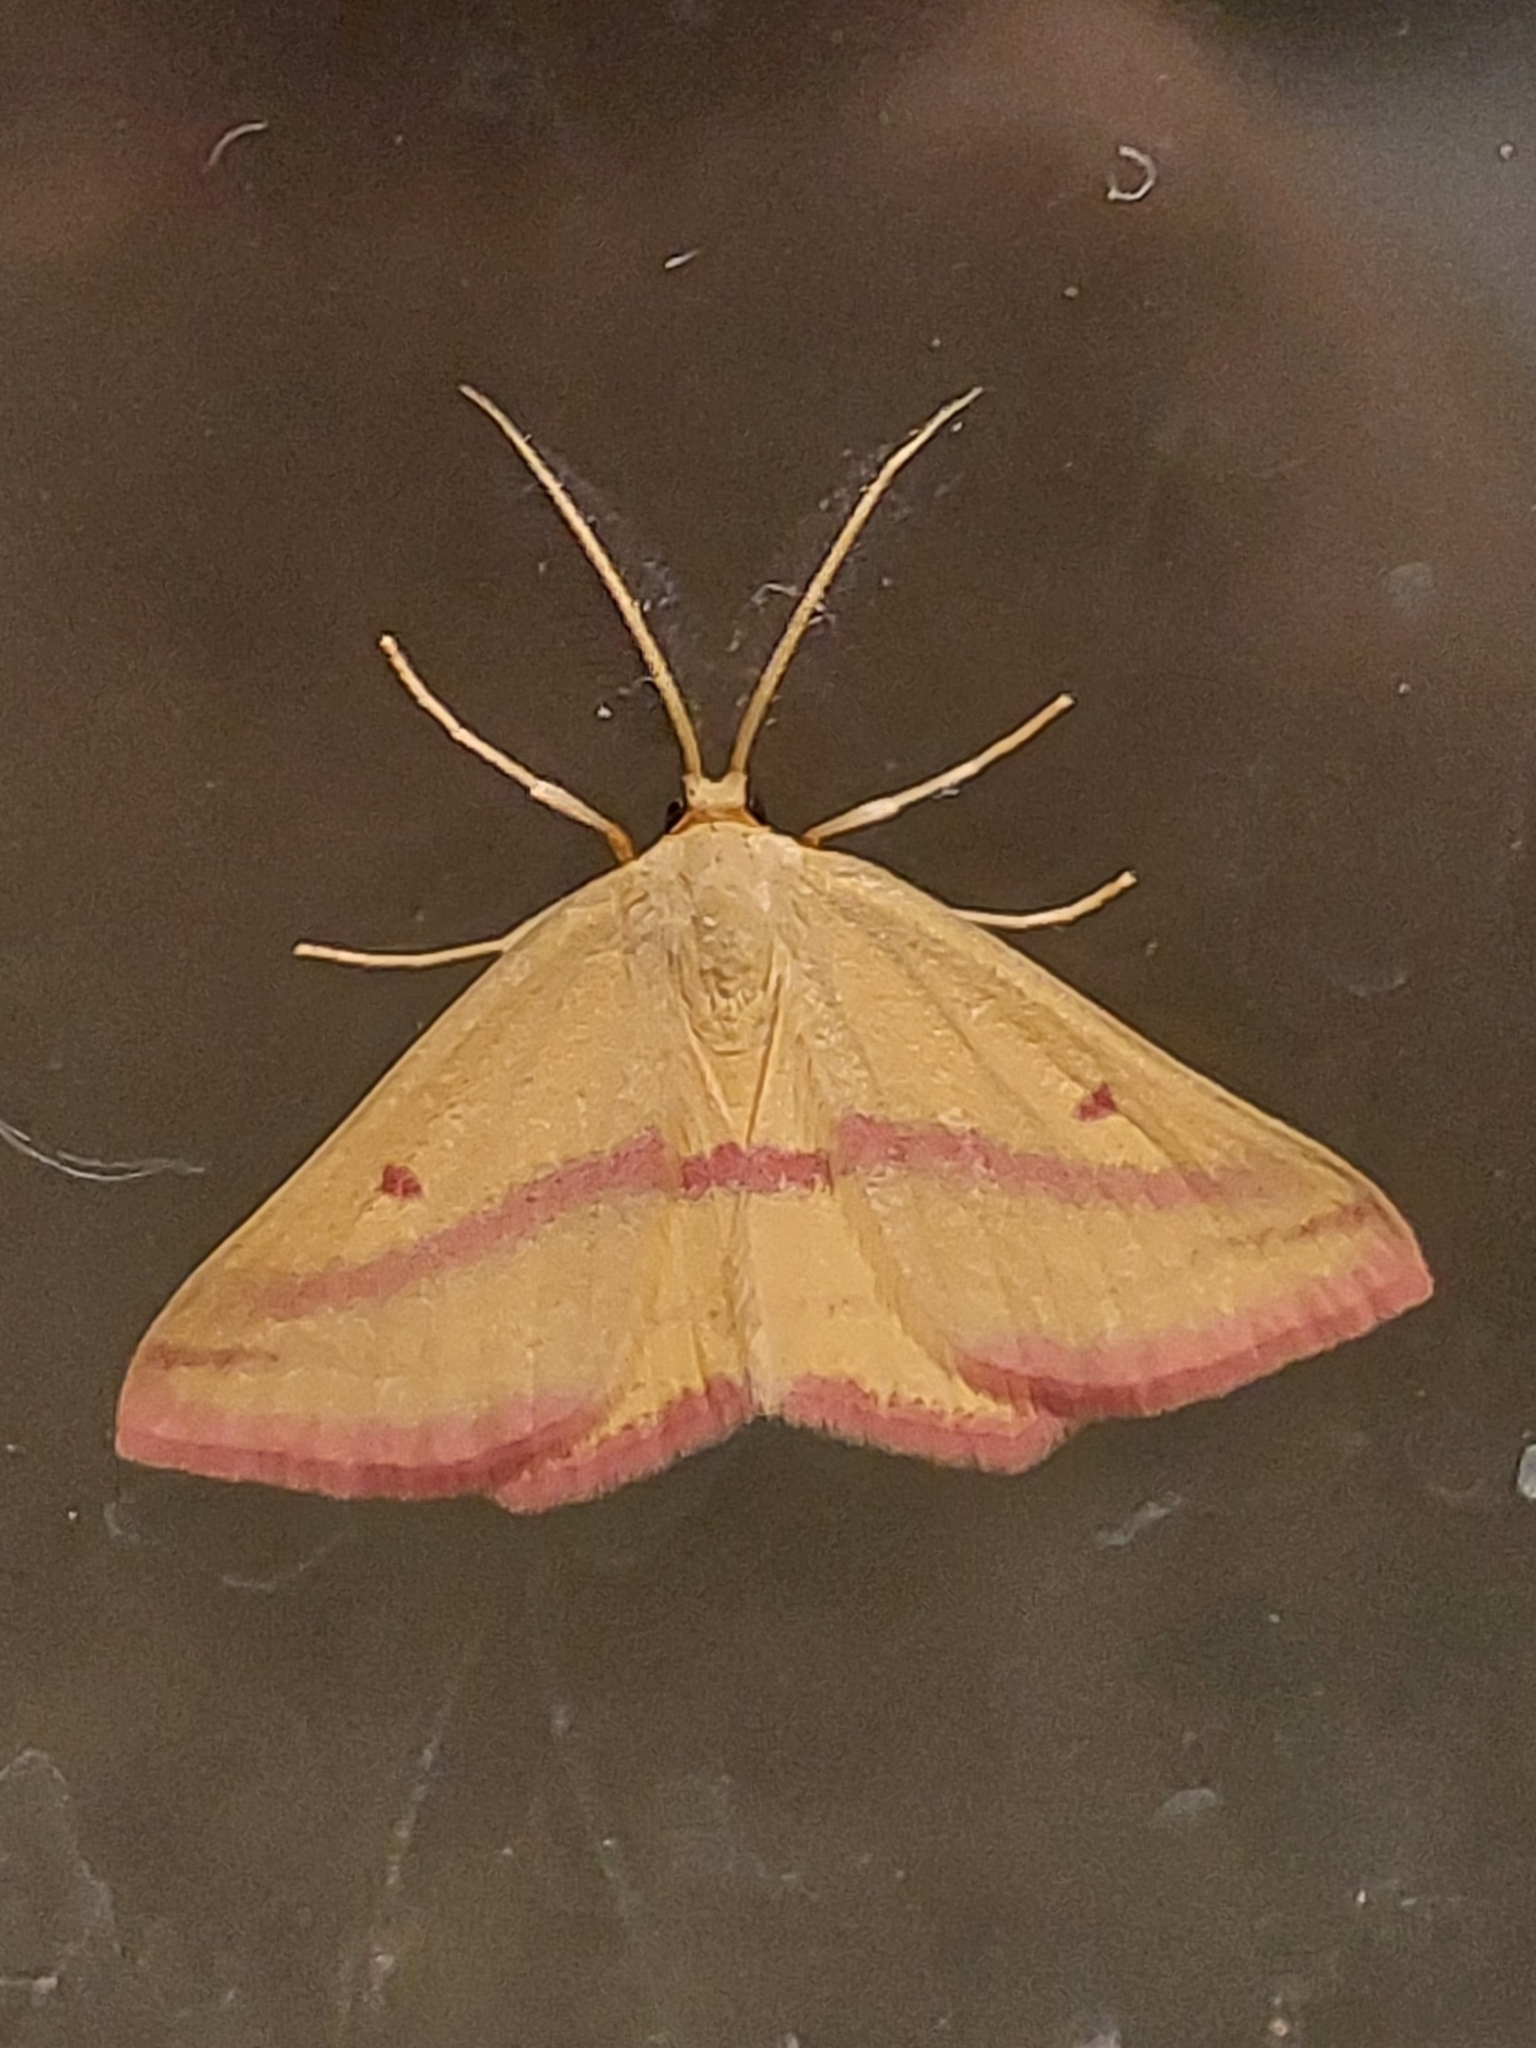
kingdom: Animalia
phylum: Arthropoda
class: Insecta
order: Lepidoptera
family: Geometridae
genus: Haematopis
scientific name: Haematopis grataria
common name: Chickweed geometer
